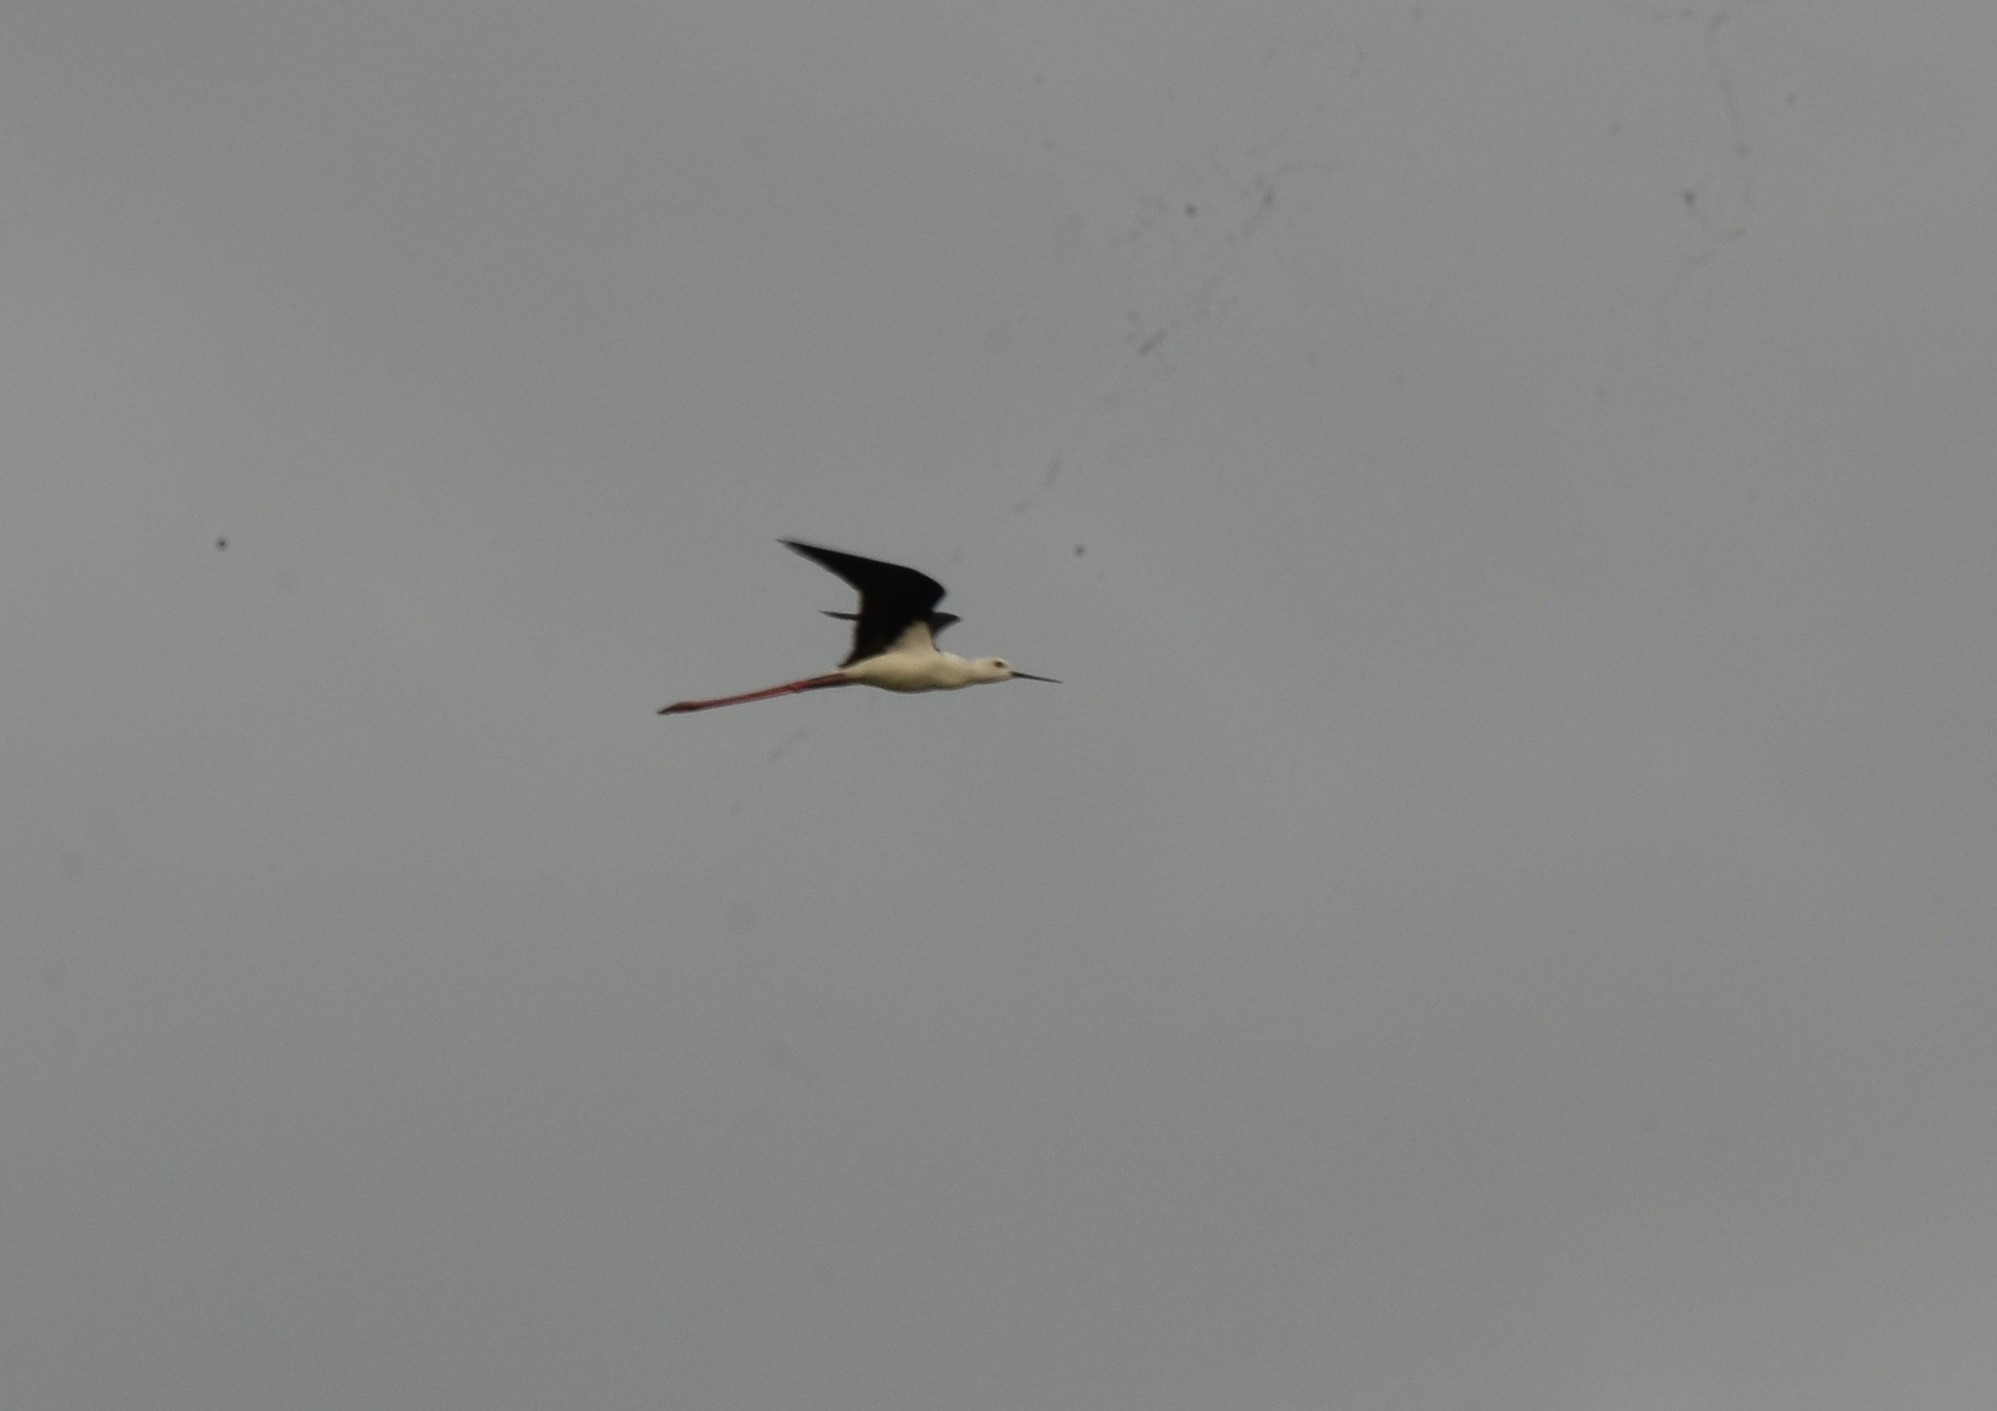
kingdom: Animalia
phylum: Chordata
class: Aves
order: Charadriiformes
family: Recurvirostridae
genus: Himantopus
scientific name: Himantopus himantopus
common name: Black-winged stilt
